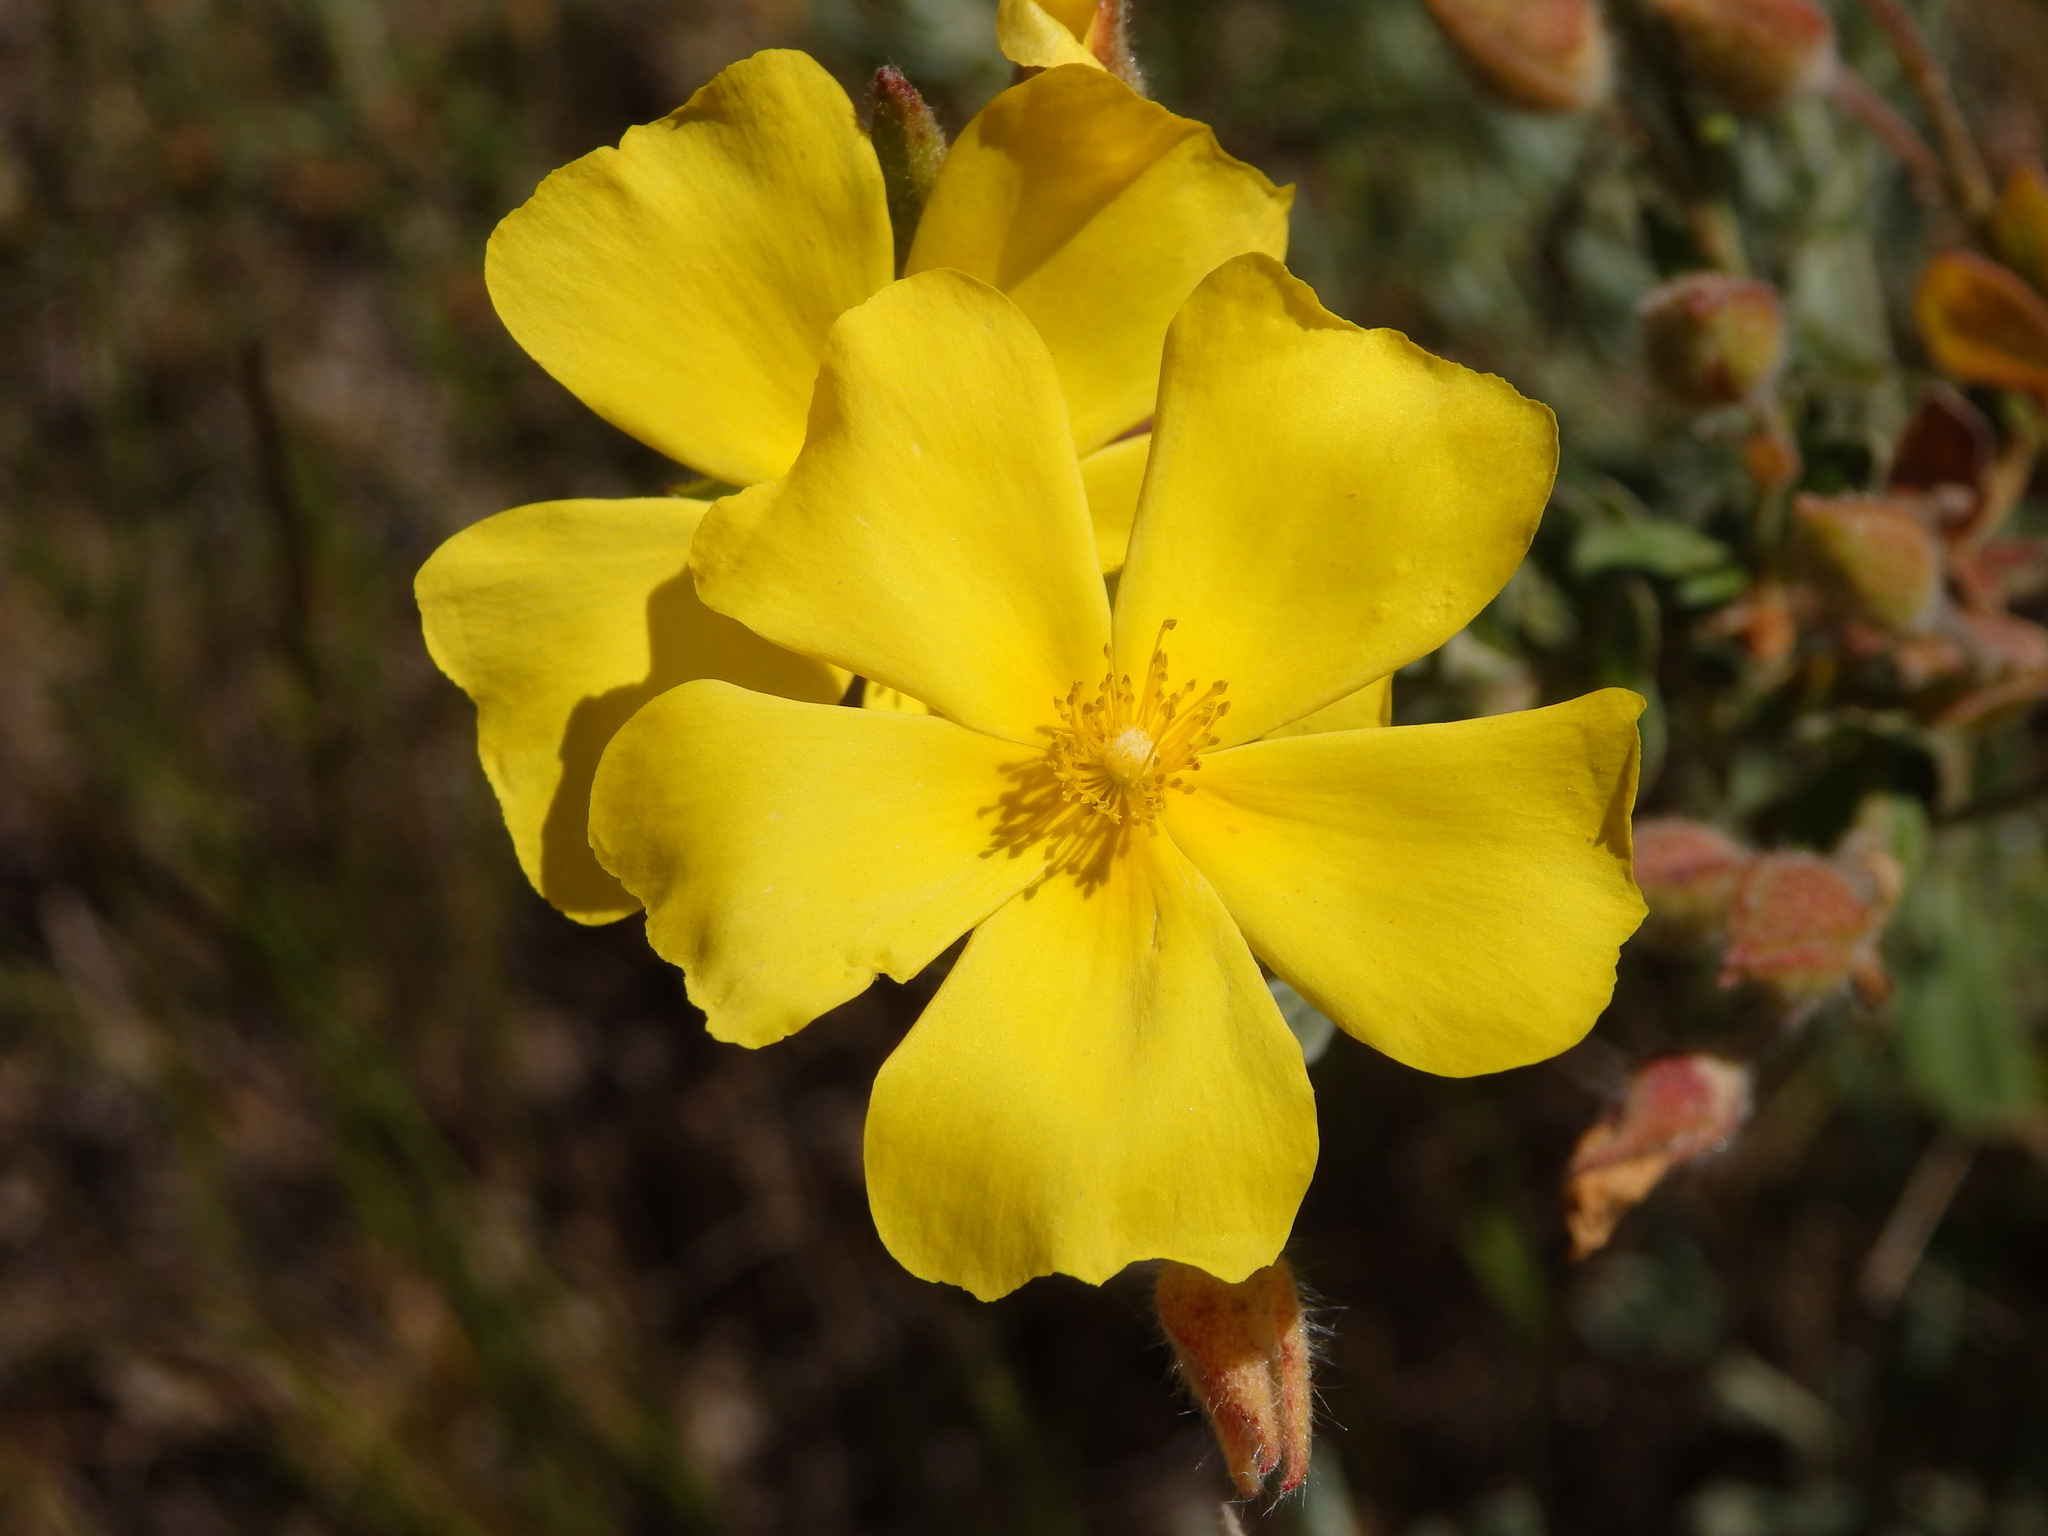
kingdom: Plantae
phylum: Tracheophyta
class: Magnoliopsida
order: Malvales
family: Cistaceae
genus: Halimium
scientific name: Halimium lasianthum
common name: Lisbon false sun-rose
